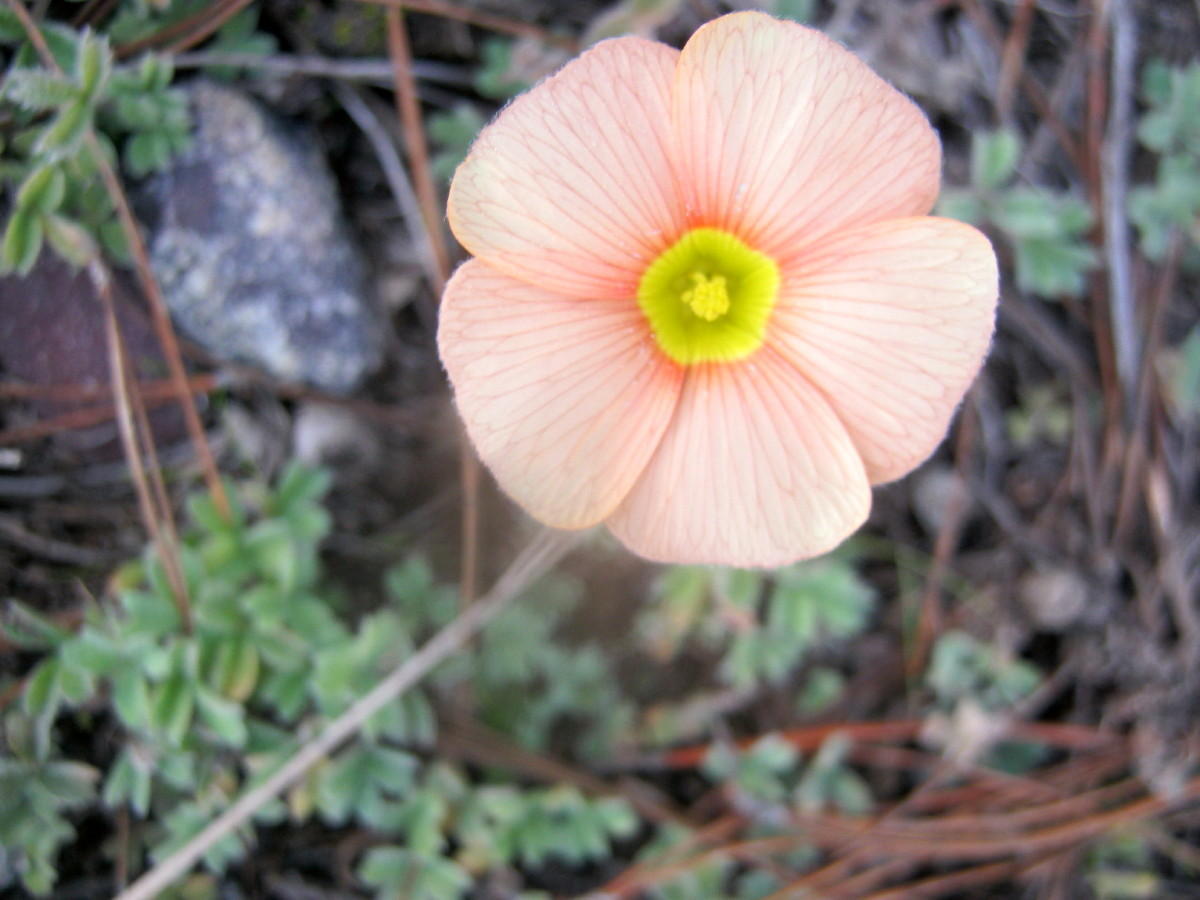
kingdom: Plantae
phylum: Tracheophyta
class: Magnoliopsida
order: Oxalidales
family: Oxalidaceae
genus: Oxalis
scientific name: Oxalis obtusa
